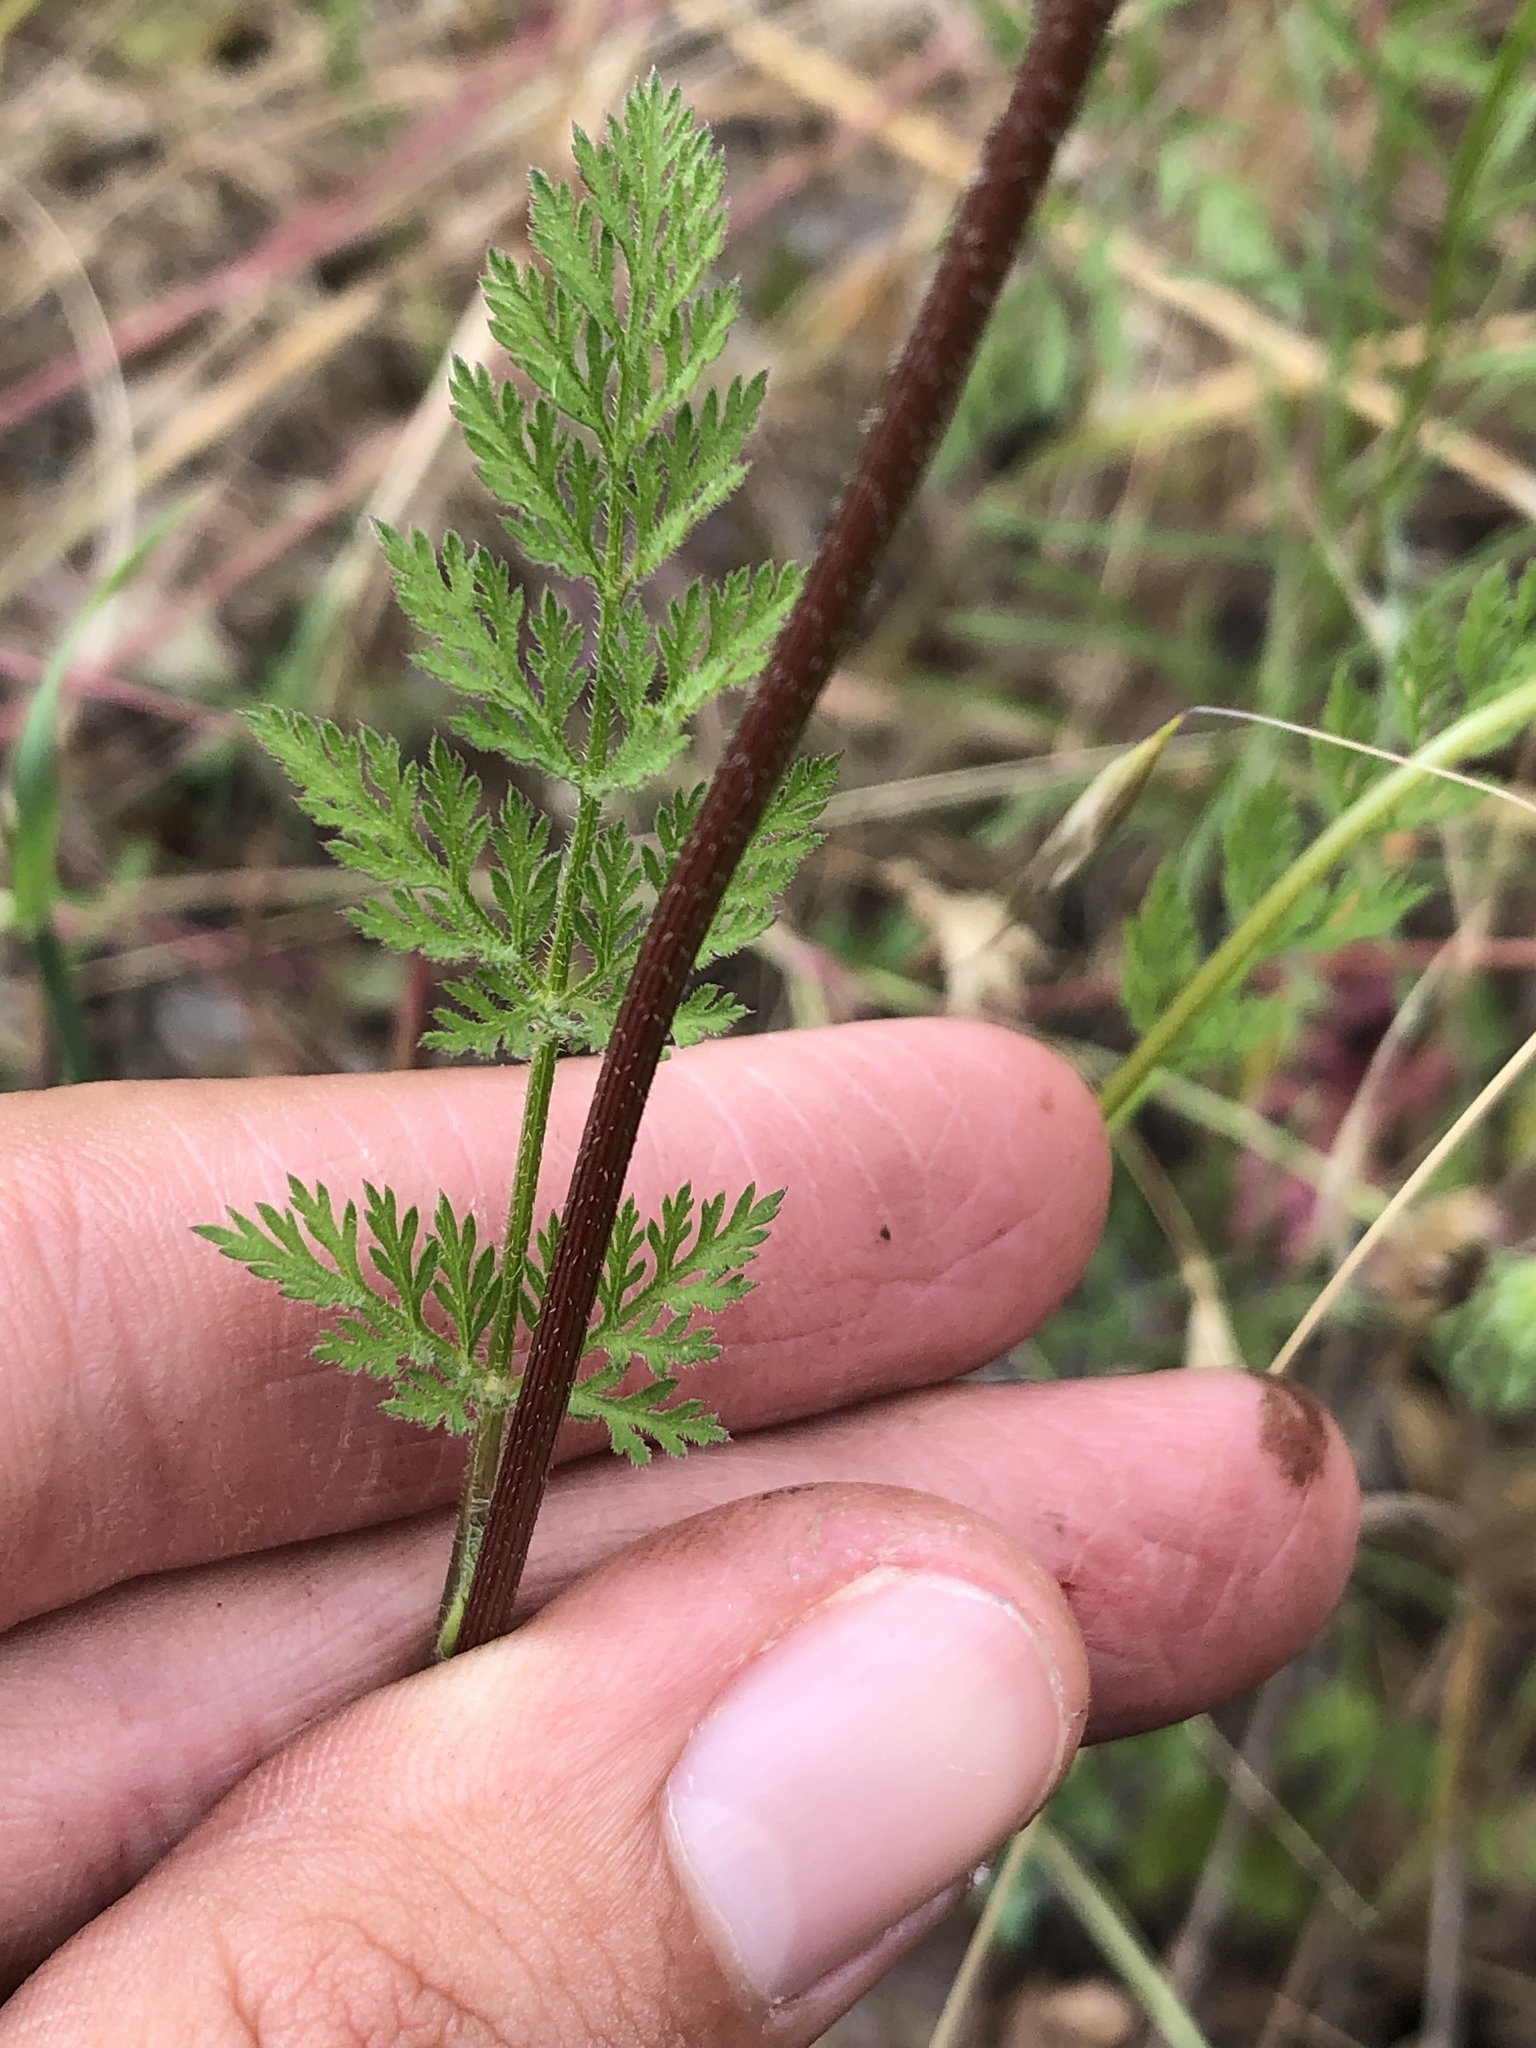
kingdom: Plantae
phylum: Tracheophyta
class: Magnoliopsida
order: Apiales
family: Apiaceae
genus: Daucus
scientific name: Daucus pusillus
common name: Southwest wild carrot
